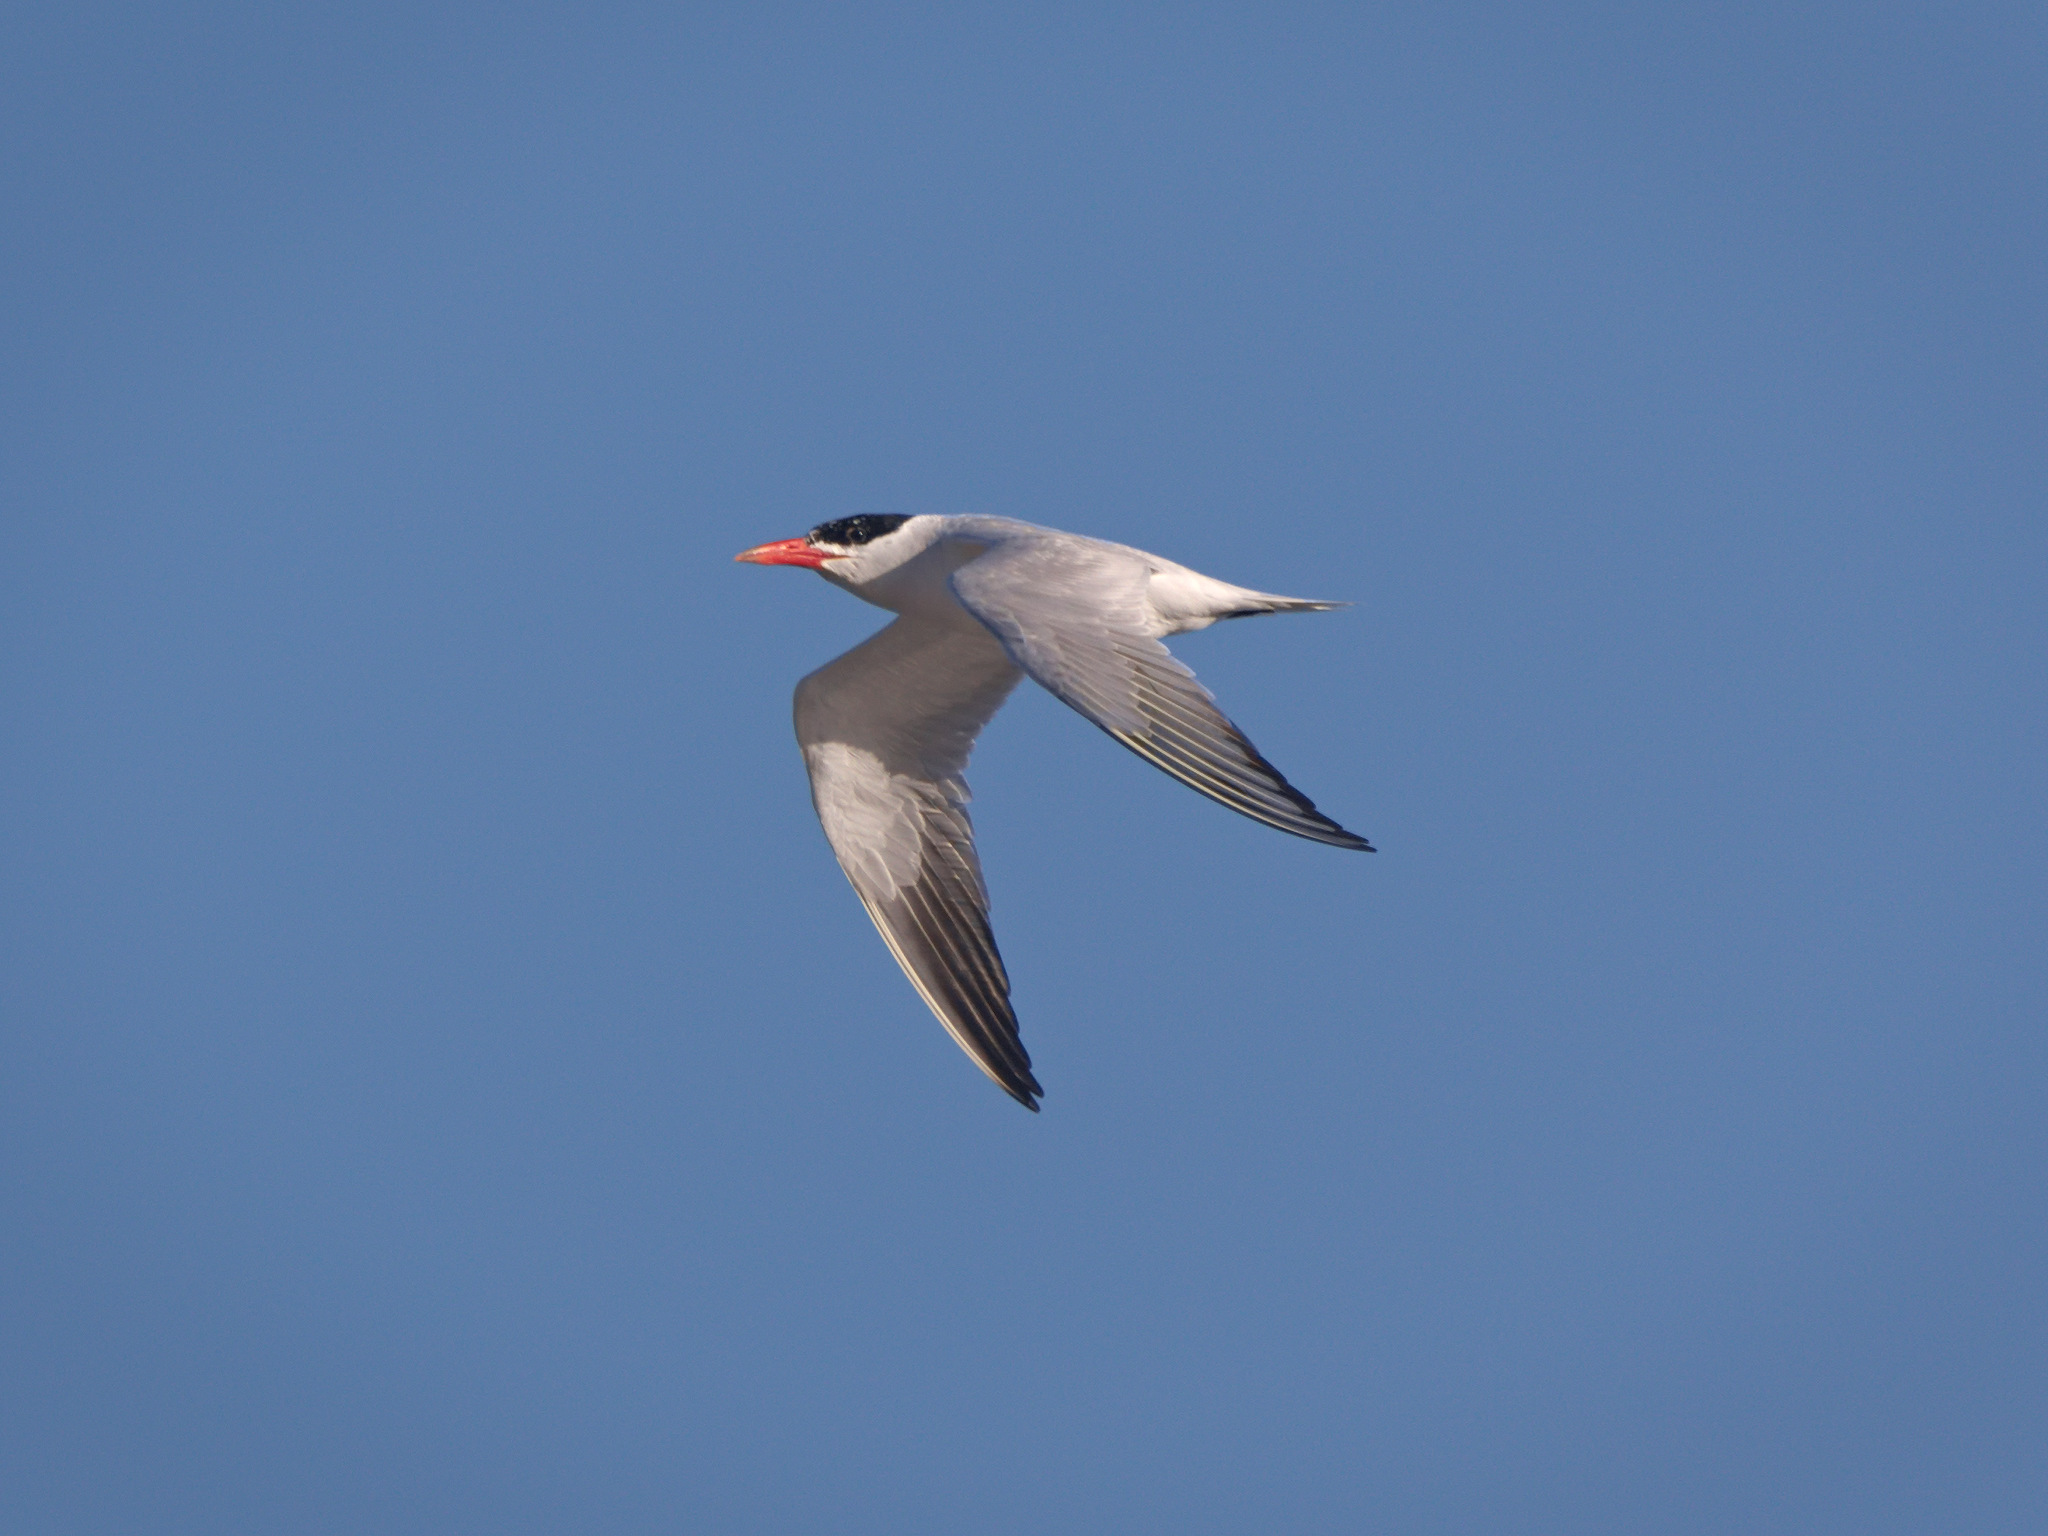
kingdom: Animalia
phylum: Chordata
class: Aves
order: Charadriiformes
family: Laridae
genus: Hydroprogne
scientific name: Hydroprogne caspia
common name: Caspian tern
